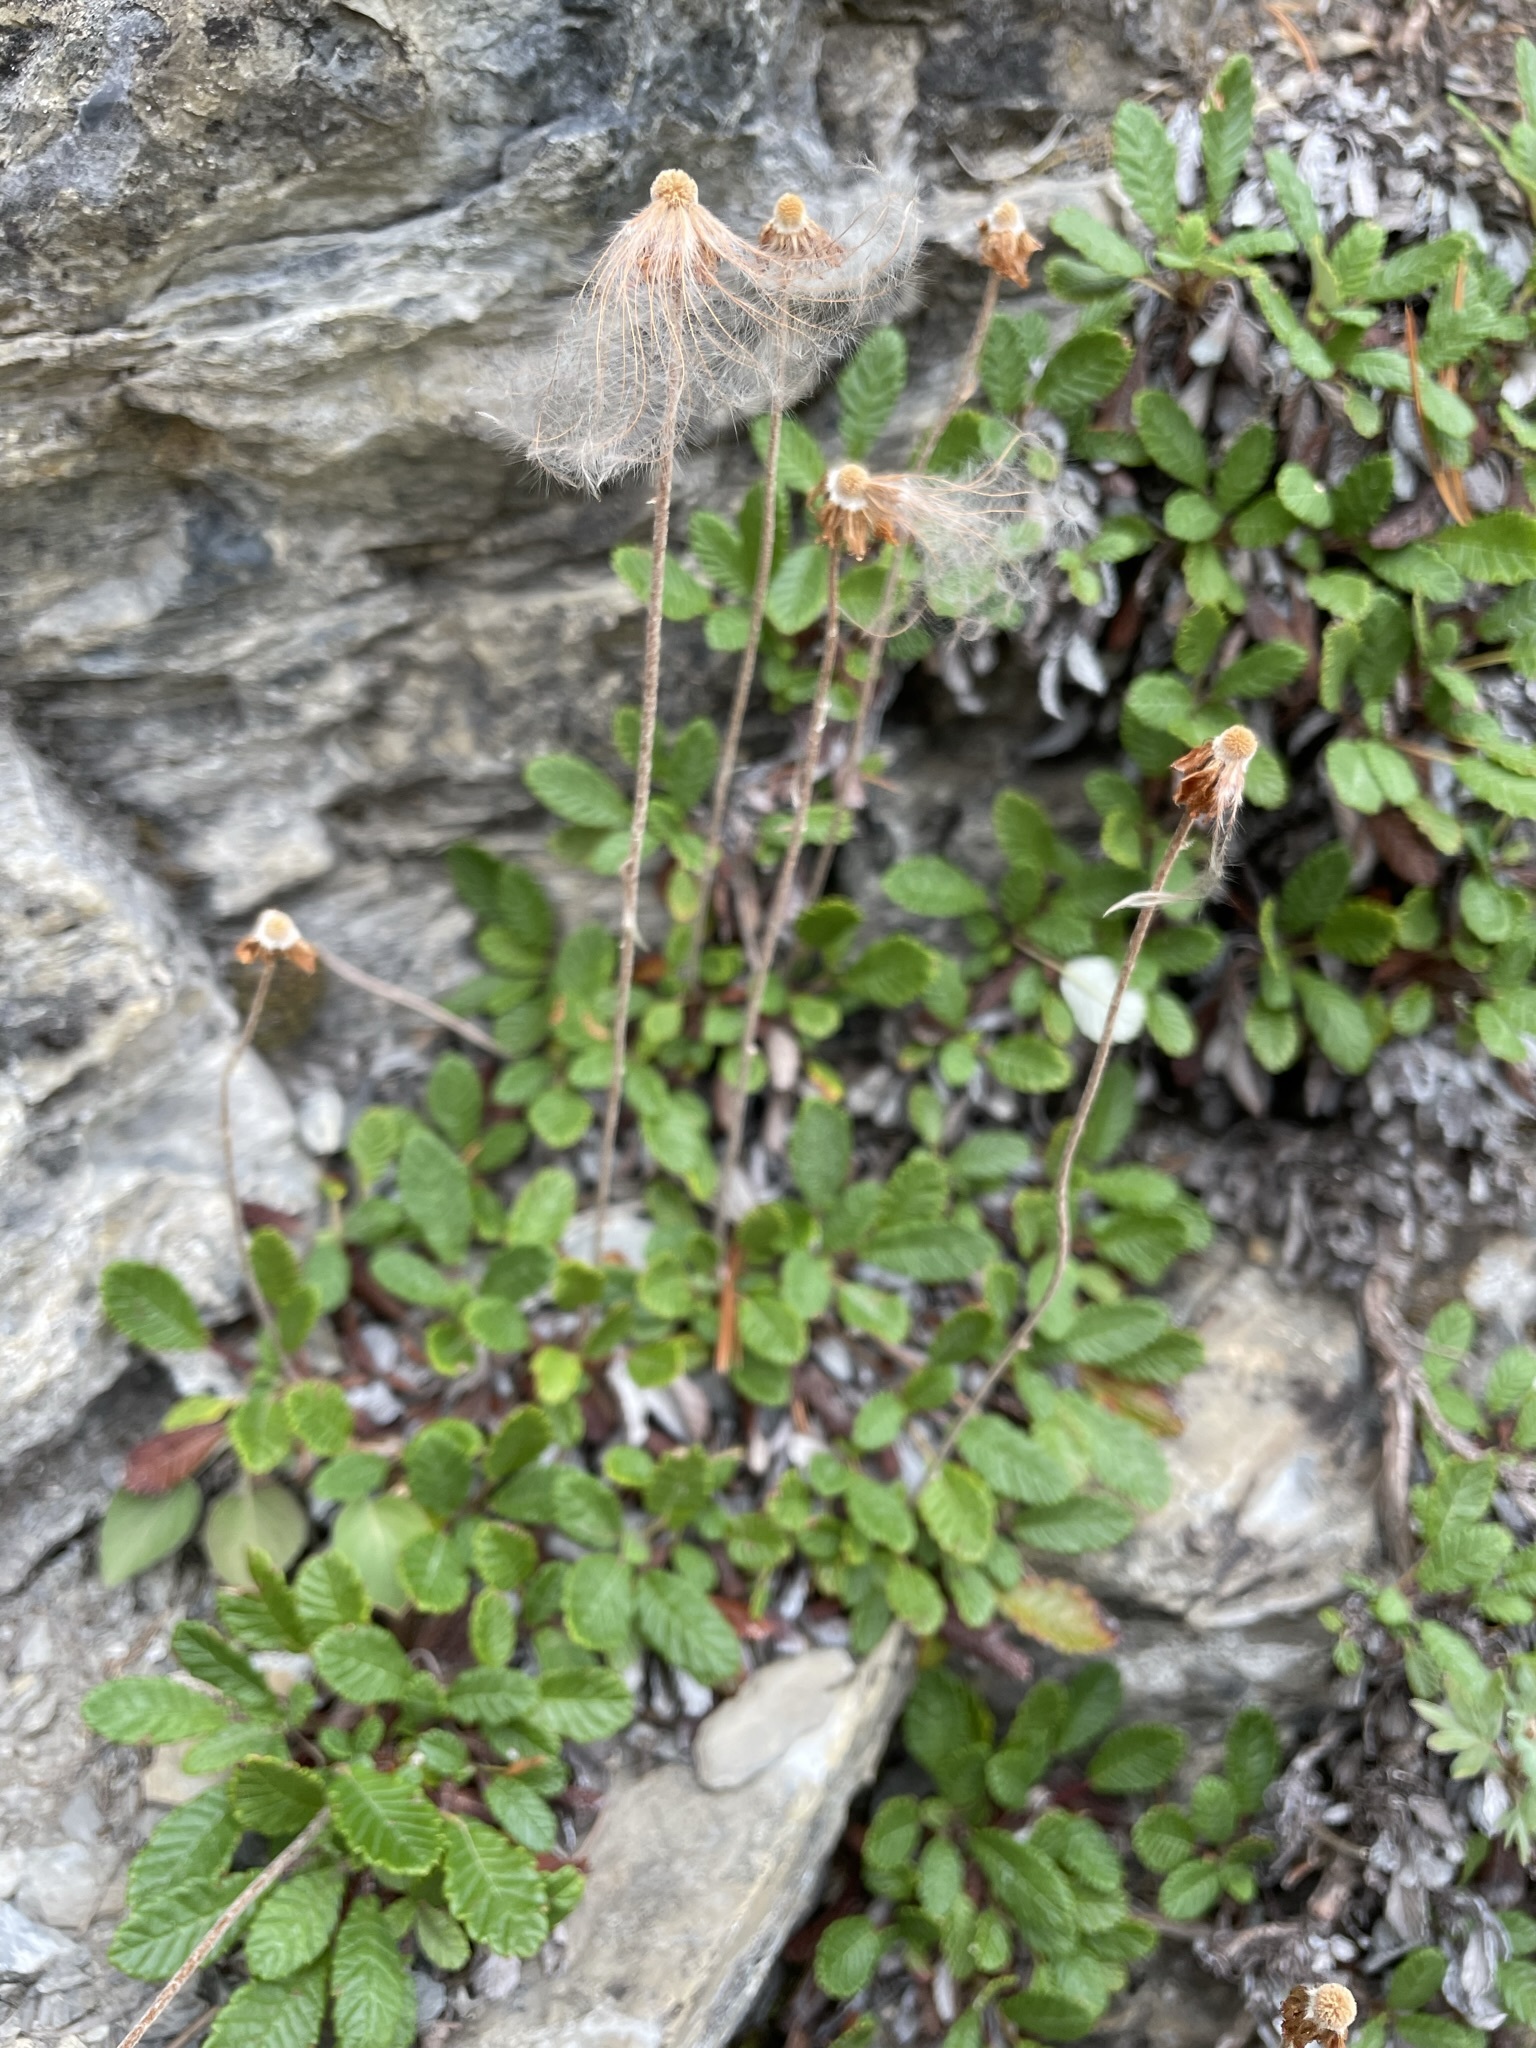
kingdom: Plantae
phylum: Tracheophyta
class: Magnoliopsida
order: Rosales
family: Rosaceae
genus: Dryas
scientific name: Dryas drummondii
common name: Drummond's dryad
